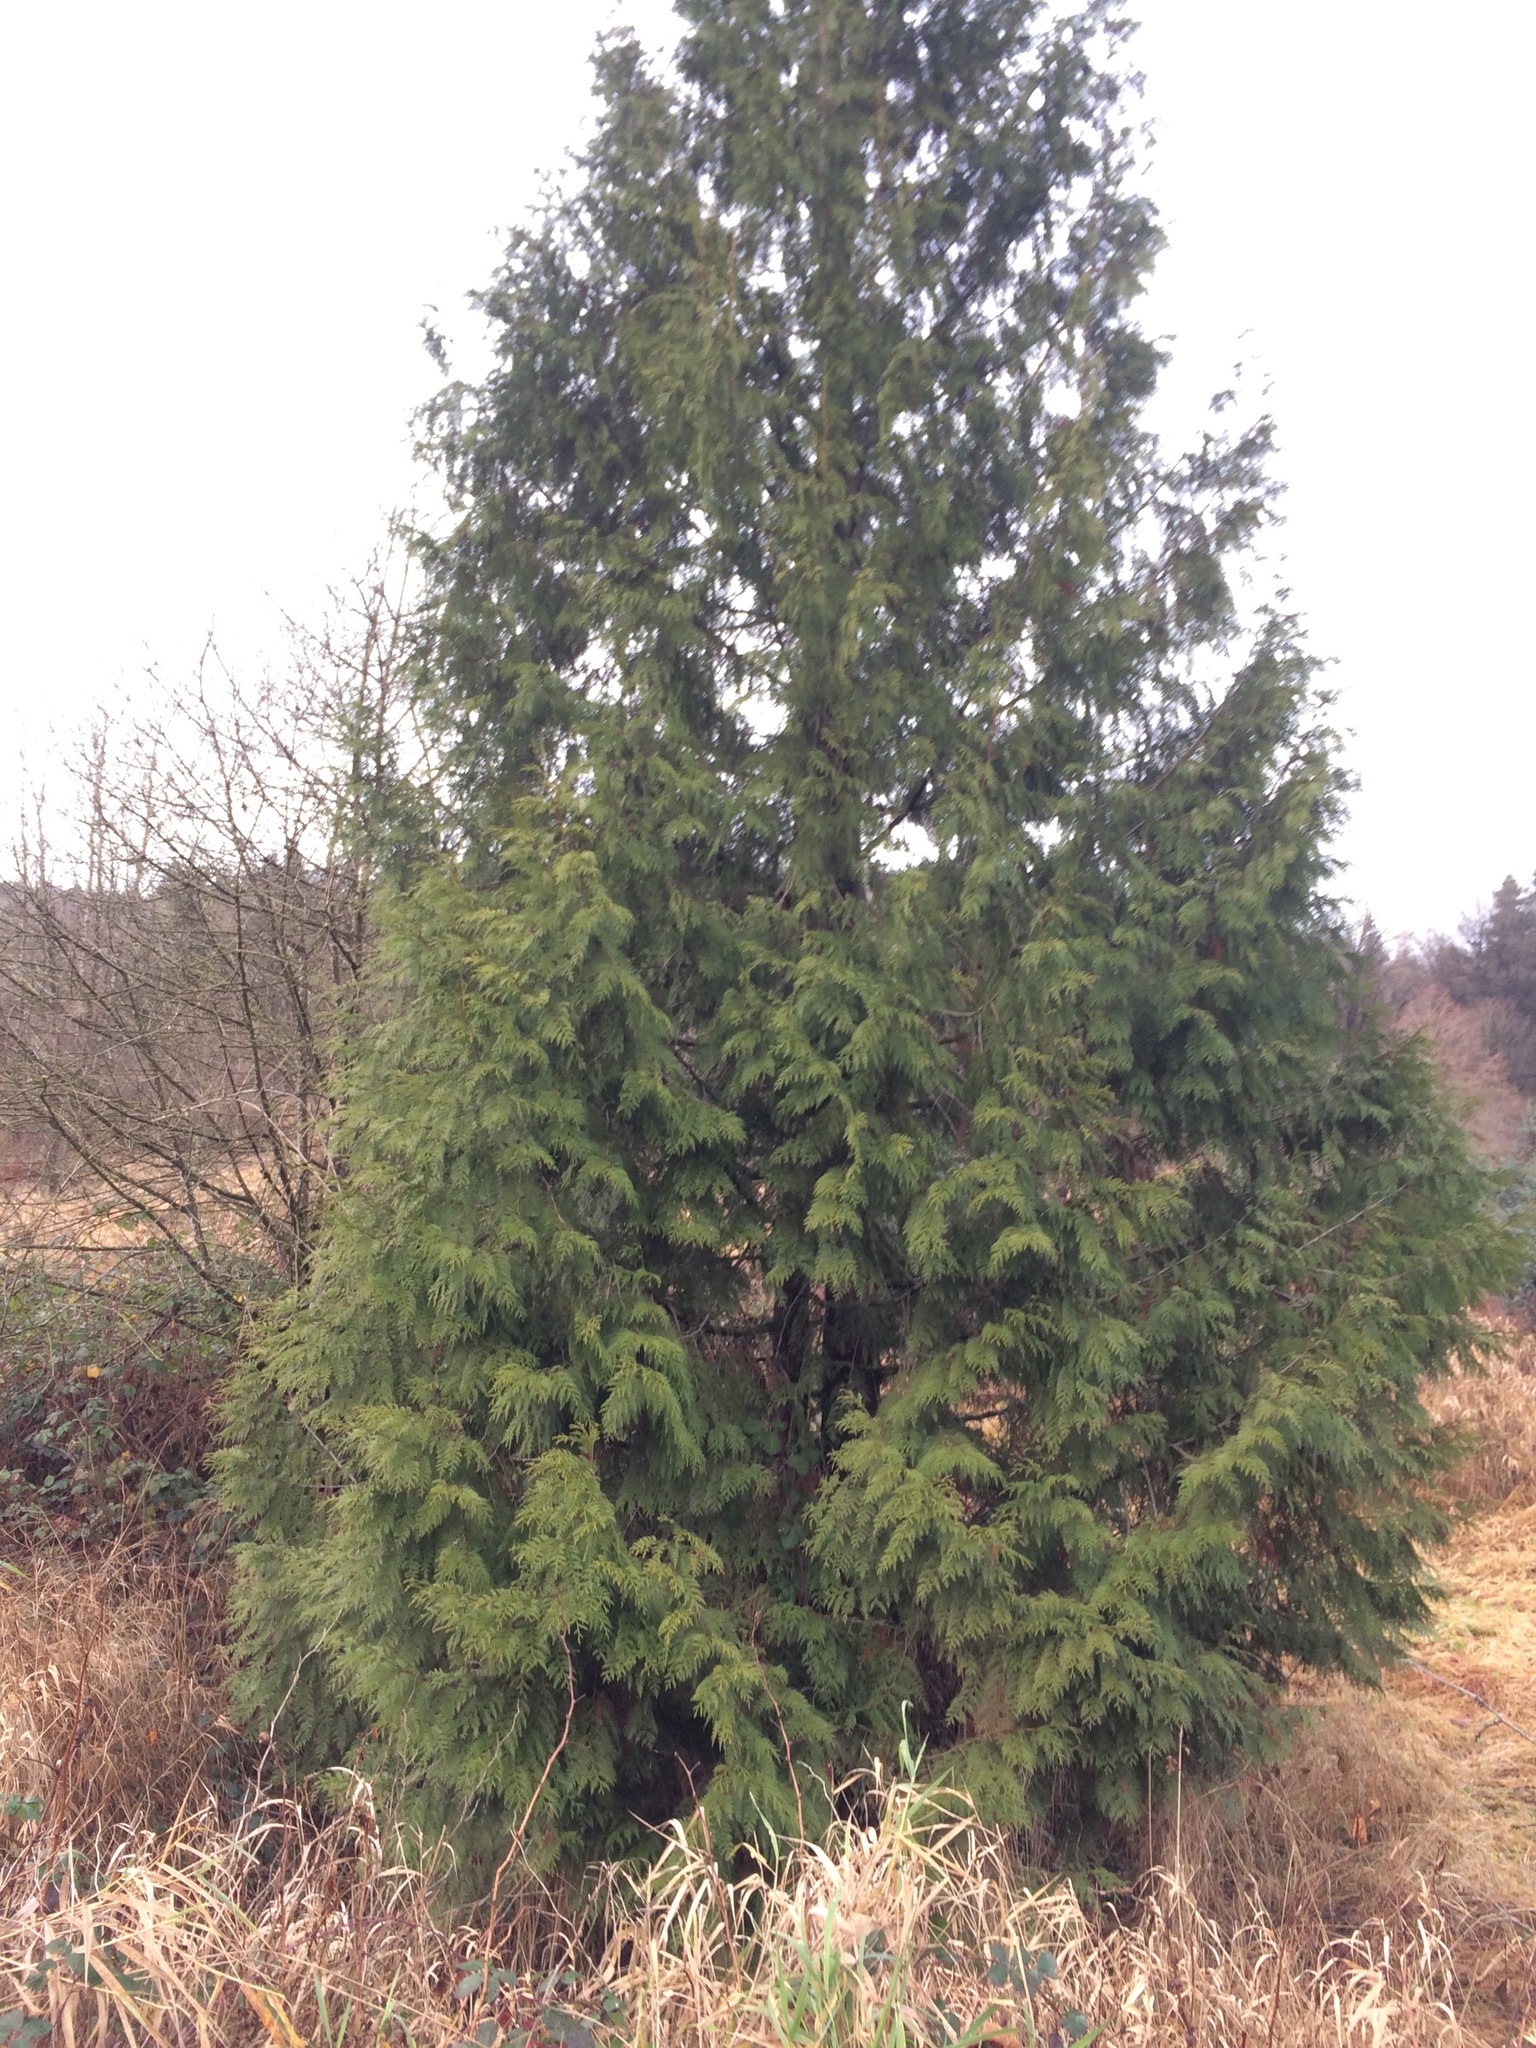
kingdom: Plantae
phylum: Tracheophyta
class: Pinopsida
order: Pinales
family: Cupressaceae
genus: Thuja
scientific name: Thuja plicata
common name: Western red-cedar
